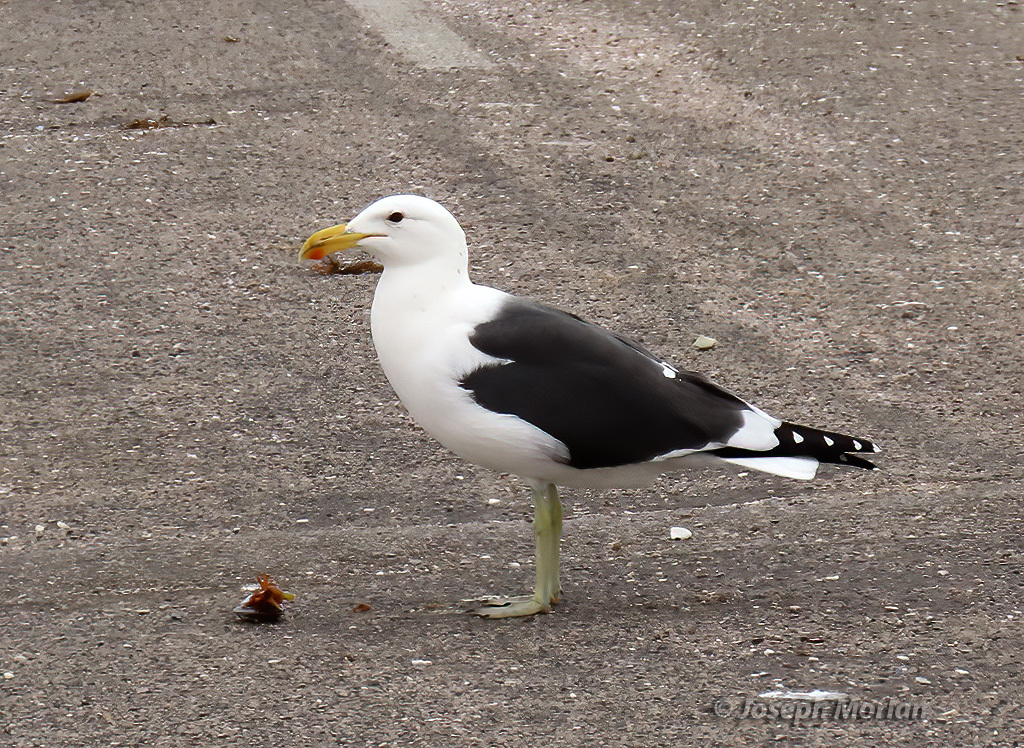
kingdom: Animalia
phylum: Chordata
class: Aves
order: Charadriiformes
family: Laridae
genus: Larus
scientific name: Larus dominicanus
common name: Kelp gull
